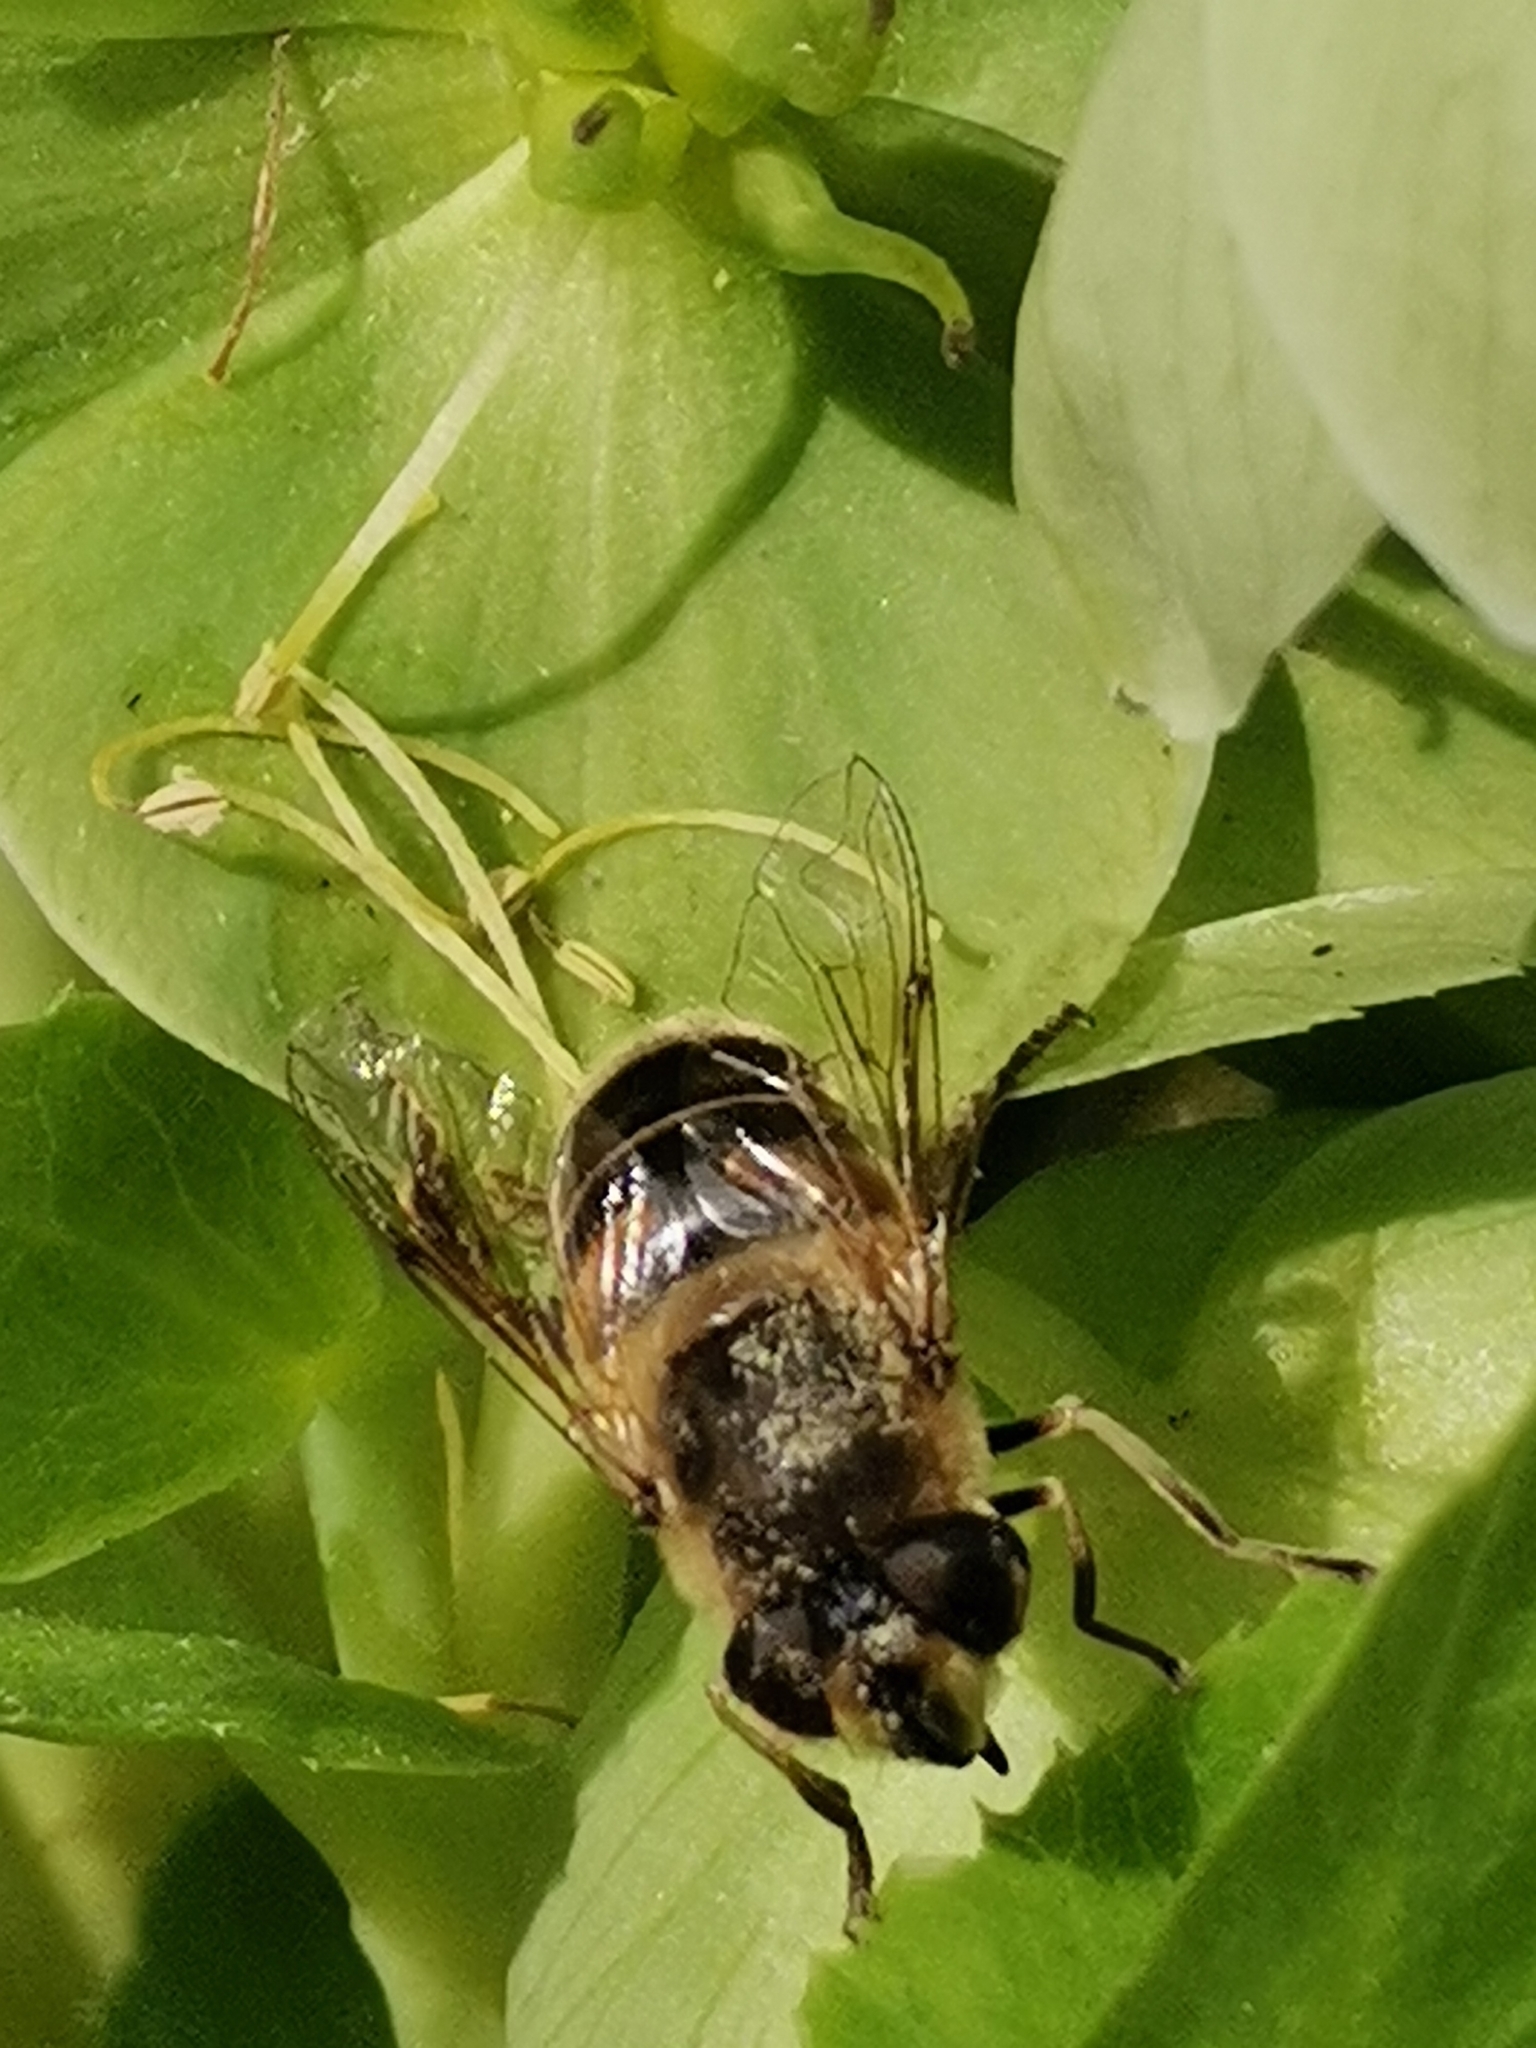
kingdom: Animalia
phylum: Arthropoda
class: Insecta
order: Diptera
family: Syrphidae
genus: Eristalis
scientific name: Eristalis tenax
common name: Drone fly
